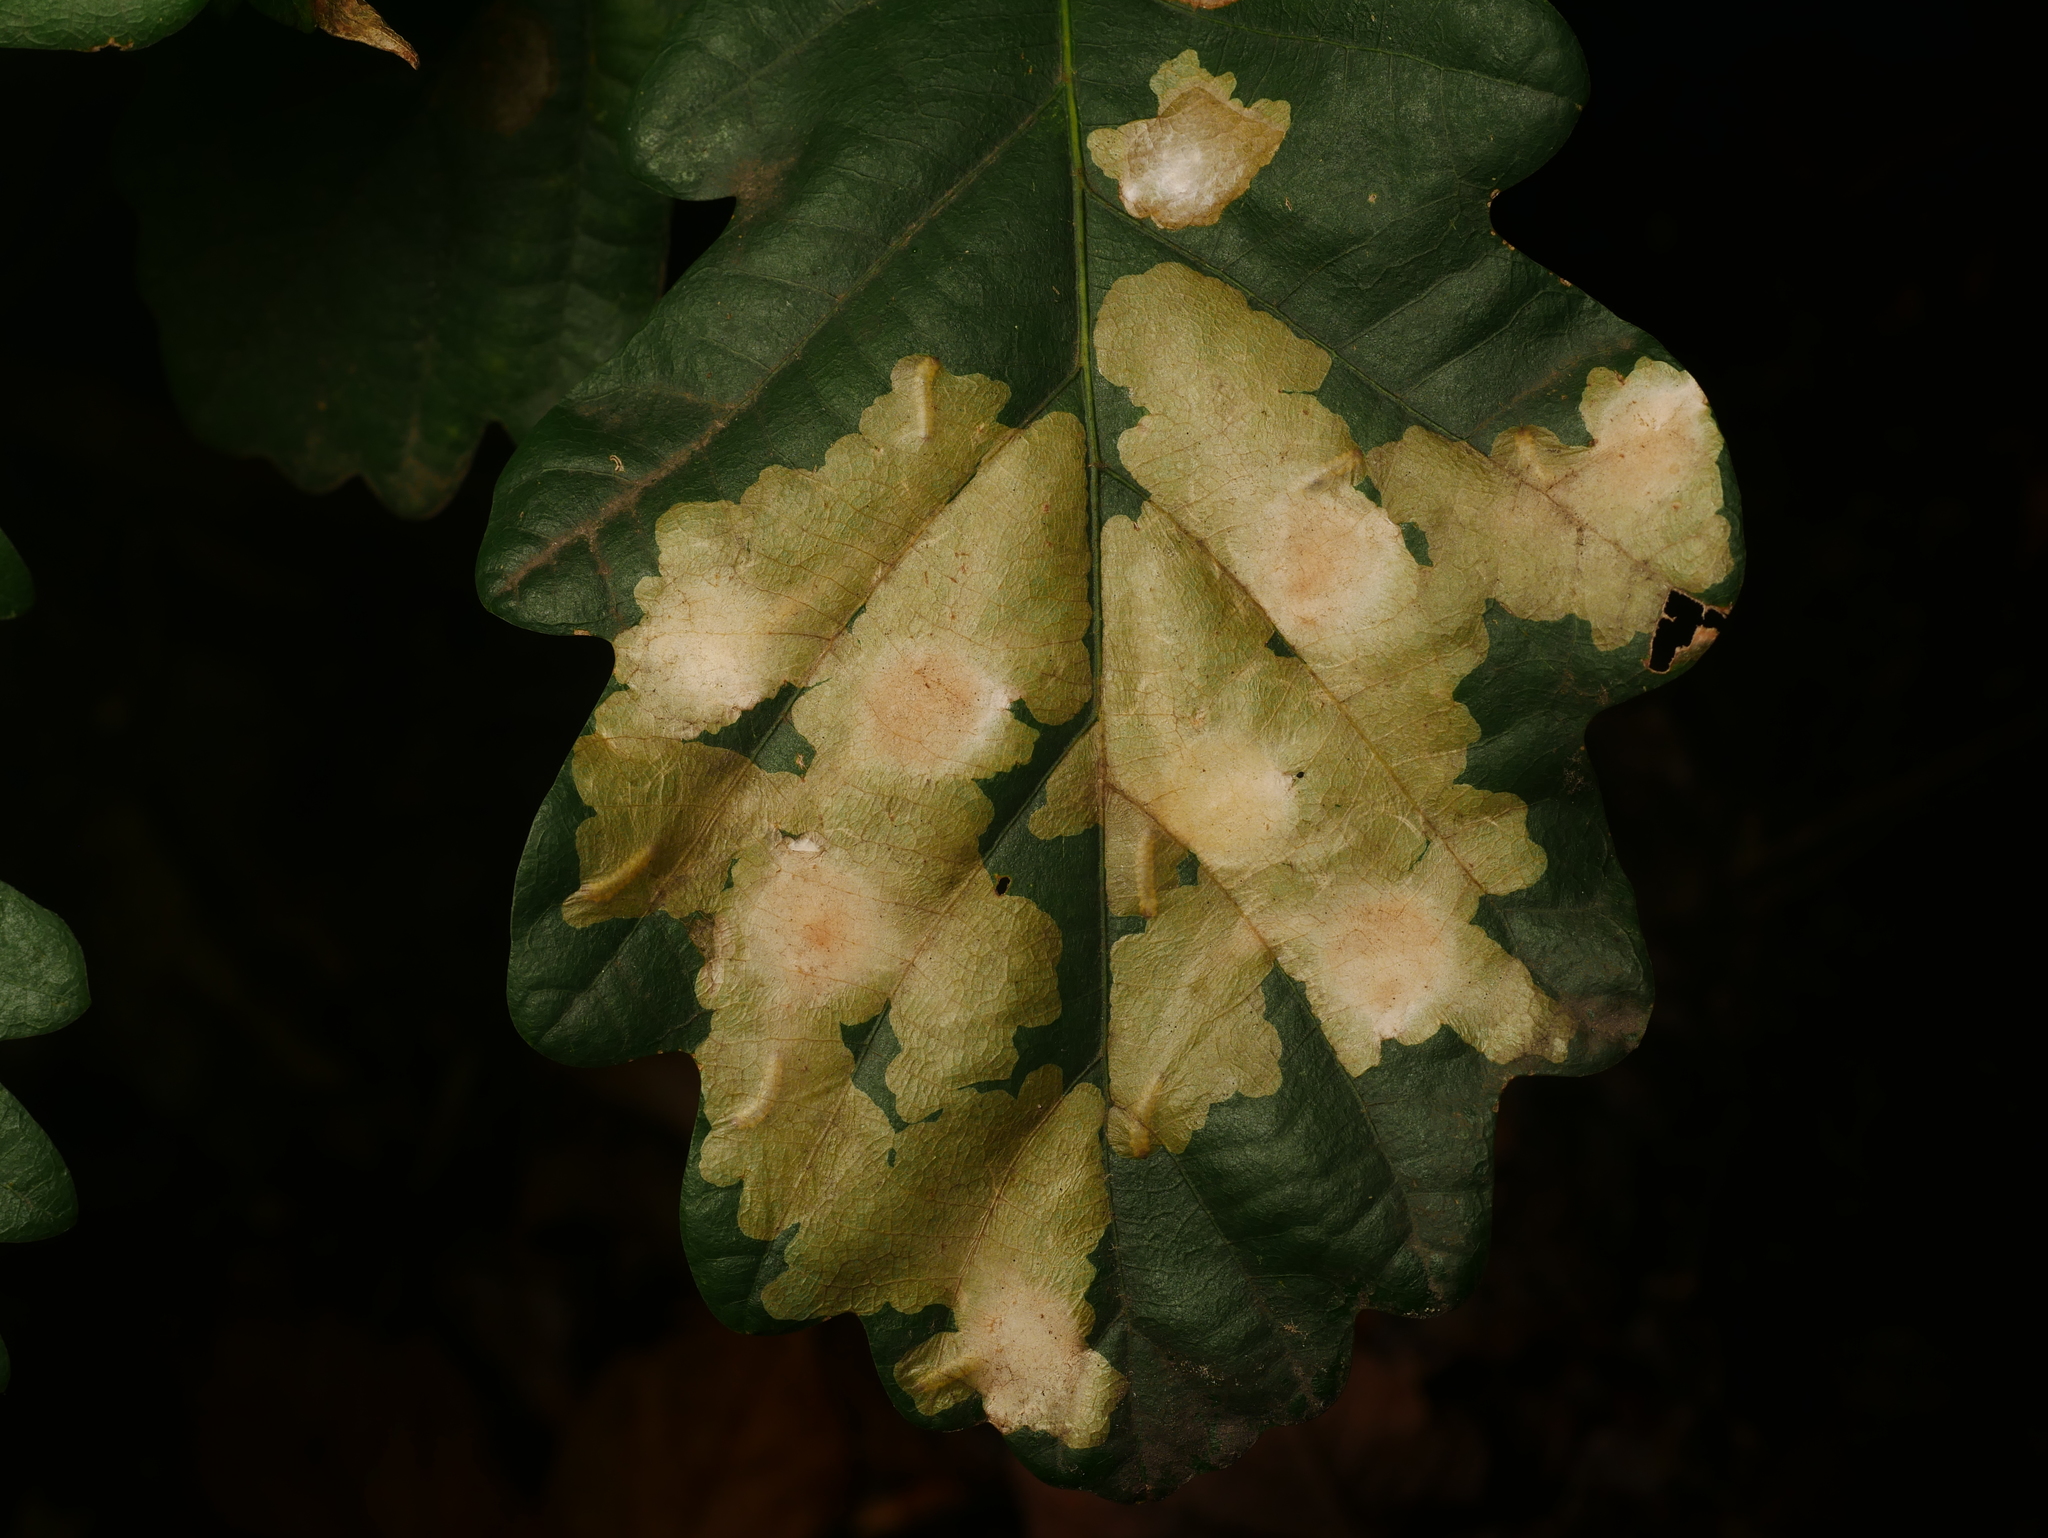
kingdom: Animalia
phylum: Arthropoda
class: Insecta
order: Lepidoptera
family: Tischeriidae
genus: Tischeria
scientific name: Tischeria ekebladella
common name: Oak carl
